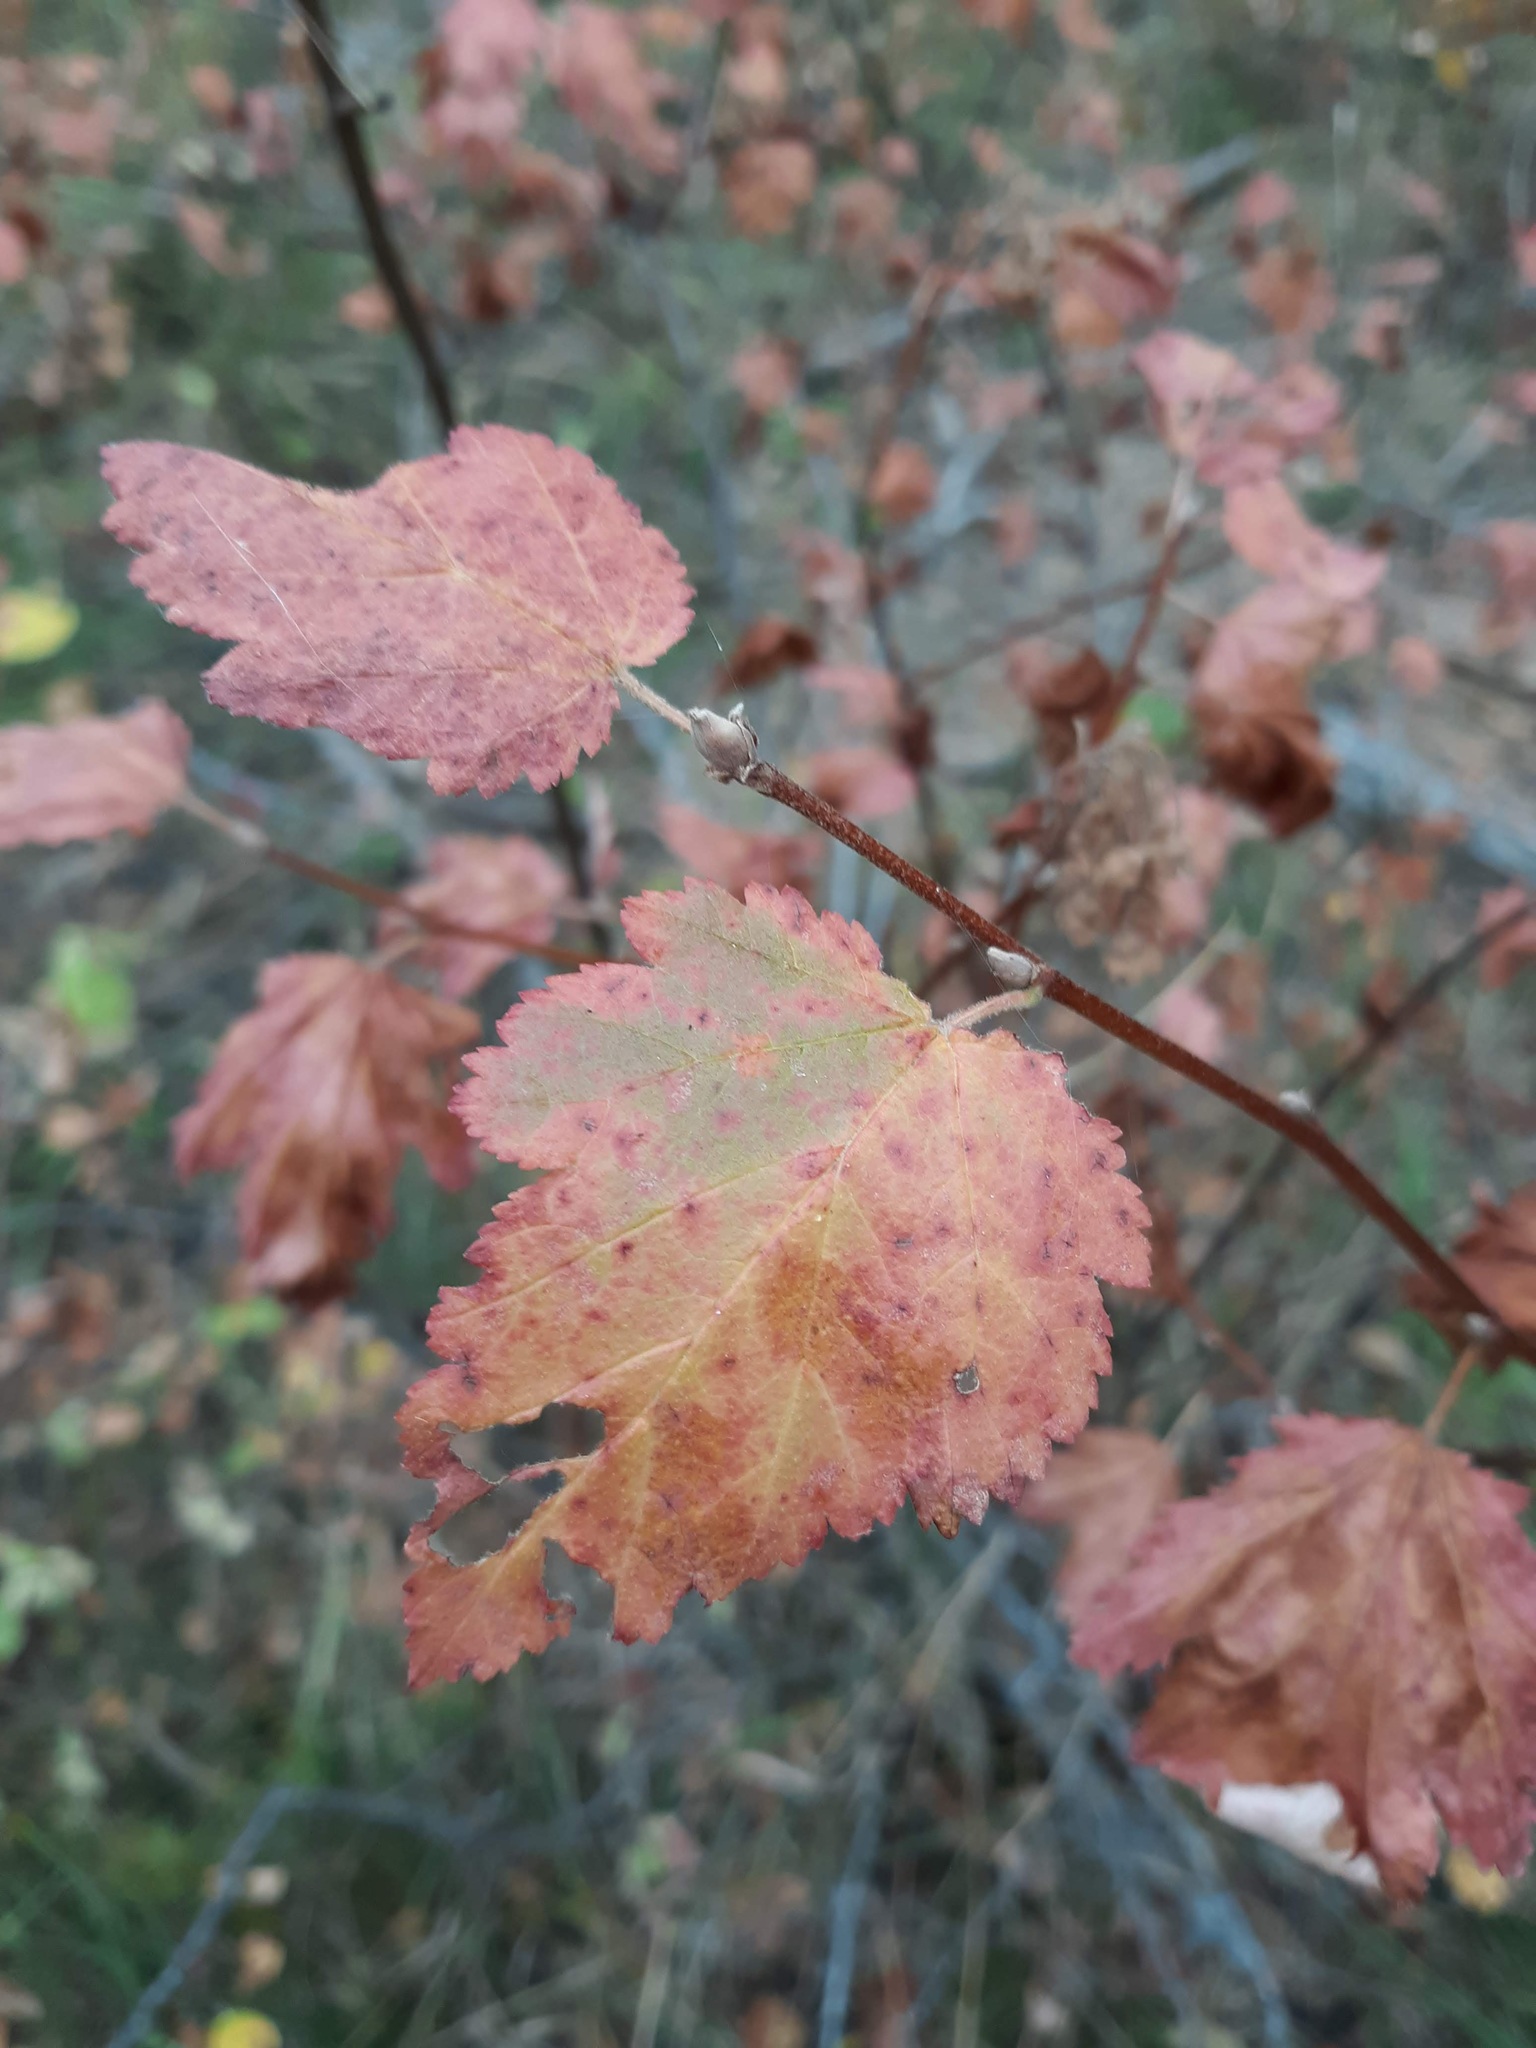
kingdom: Plantae
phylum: Tracheophyta
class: Magnoliopsida
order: Rosales
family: Rosaceae
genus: Physocarpus
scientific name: Physocarpus malvaceus
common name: Mallow ninebark
